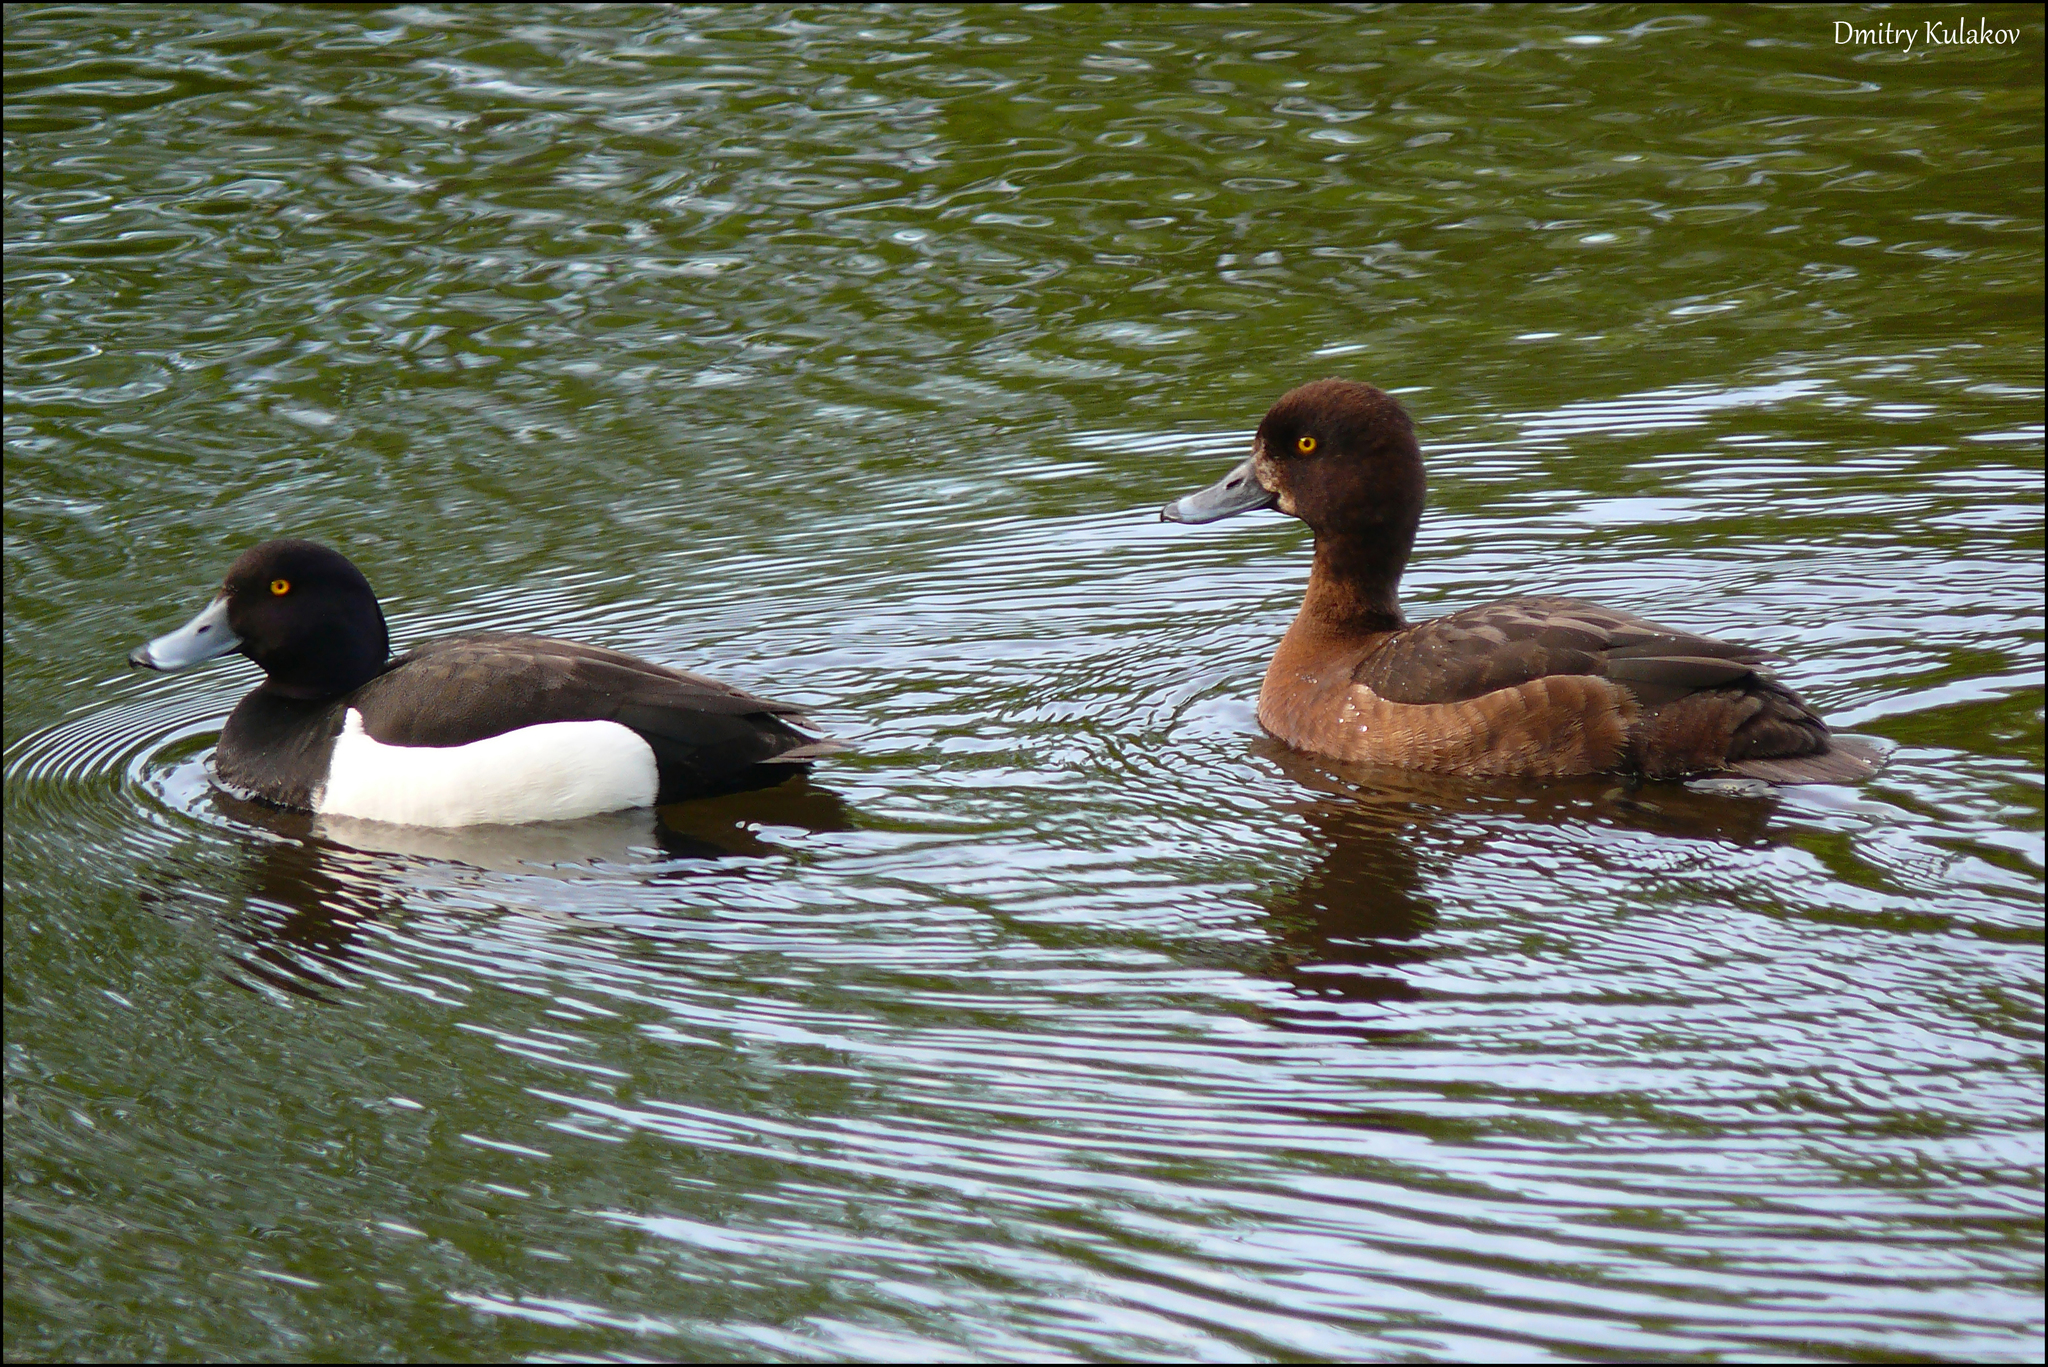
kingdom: Animalia
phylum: Chordata
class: Aves
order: Anseriformes
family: Anatidae
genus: Aythya
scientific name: Aythya fuligula
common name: Tufted duck
